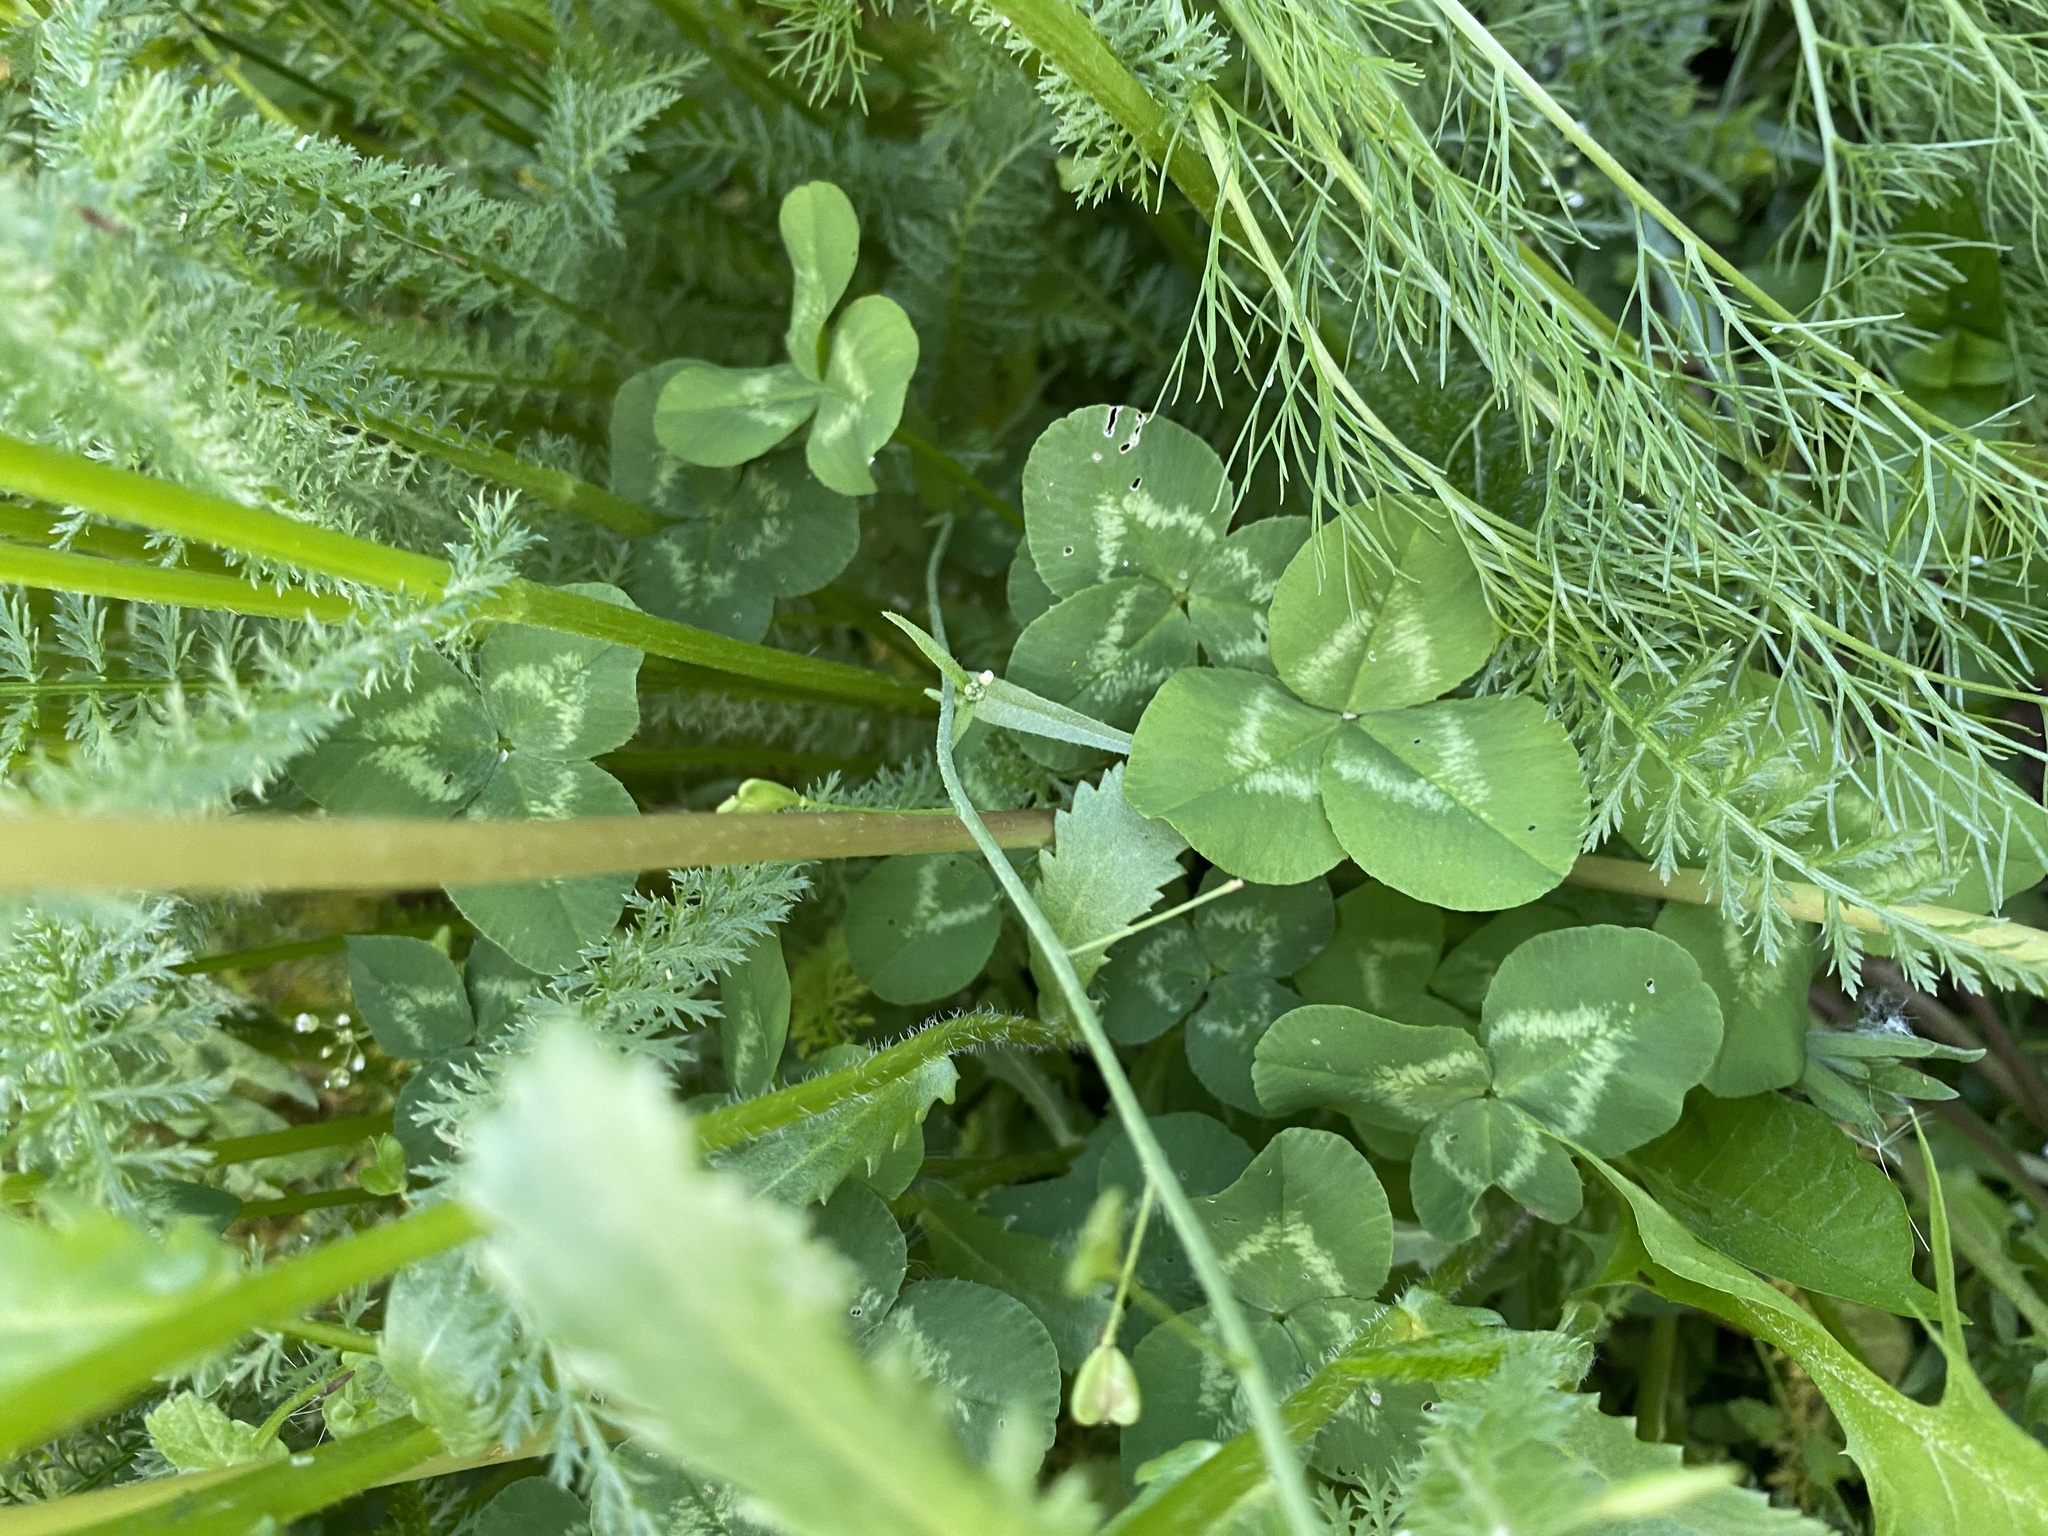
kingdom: Plantae
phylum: Tracheophyta
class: Magnoliopsida
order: Fabales
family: Fabaceae
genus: Trifolium
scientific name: Trifolium repens
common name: White clover
